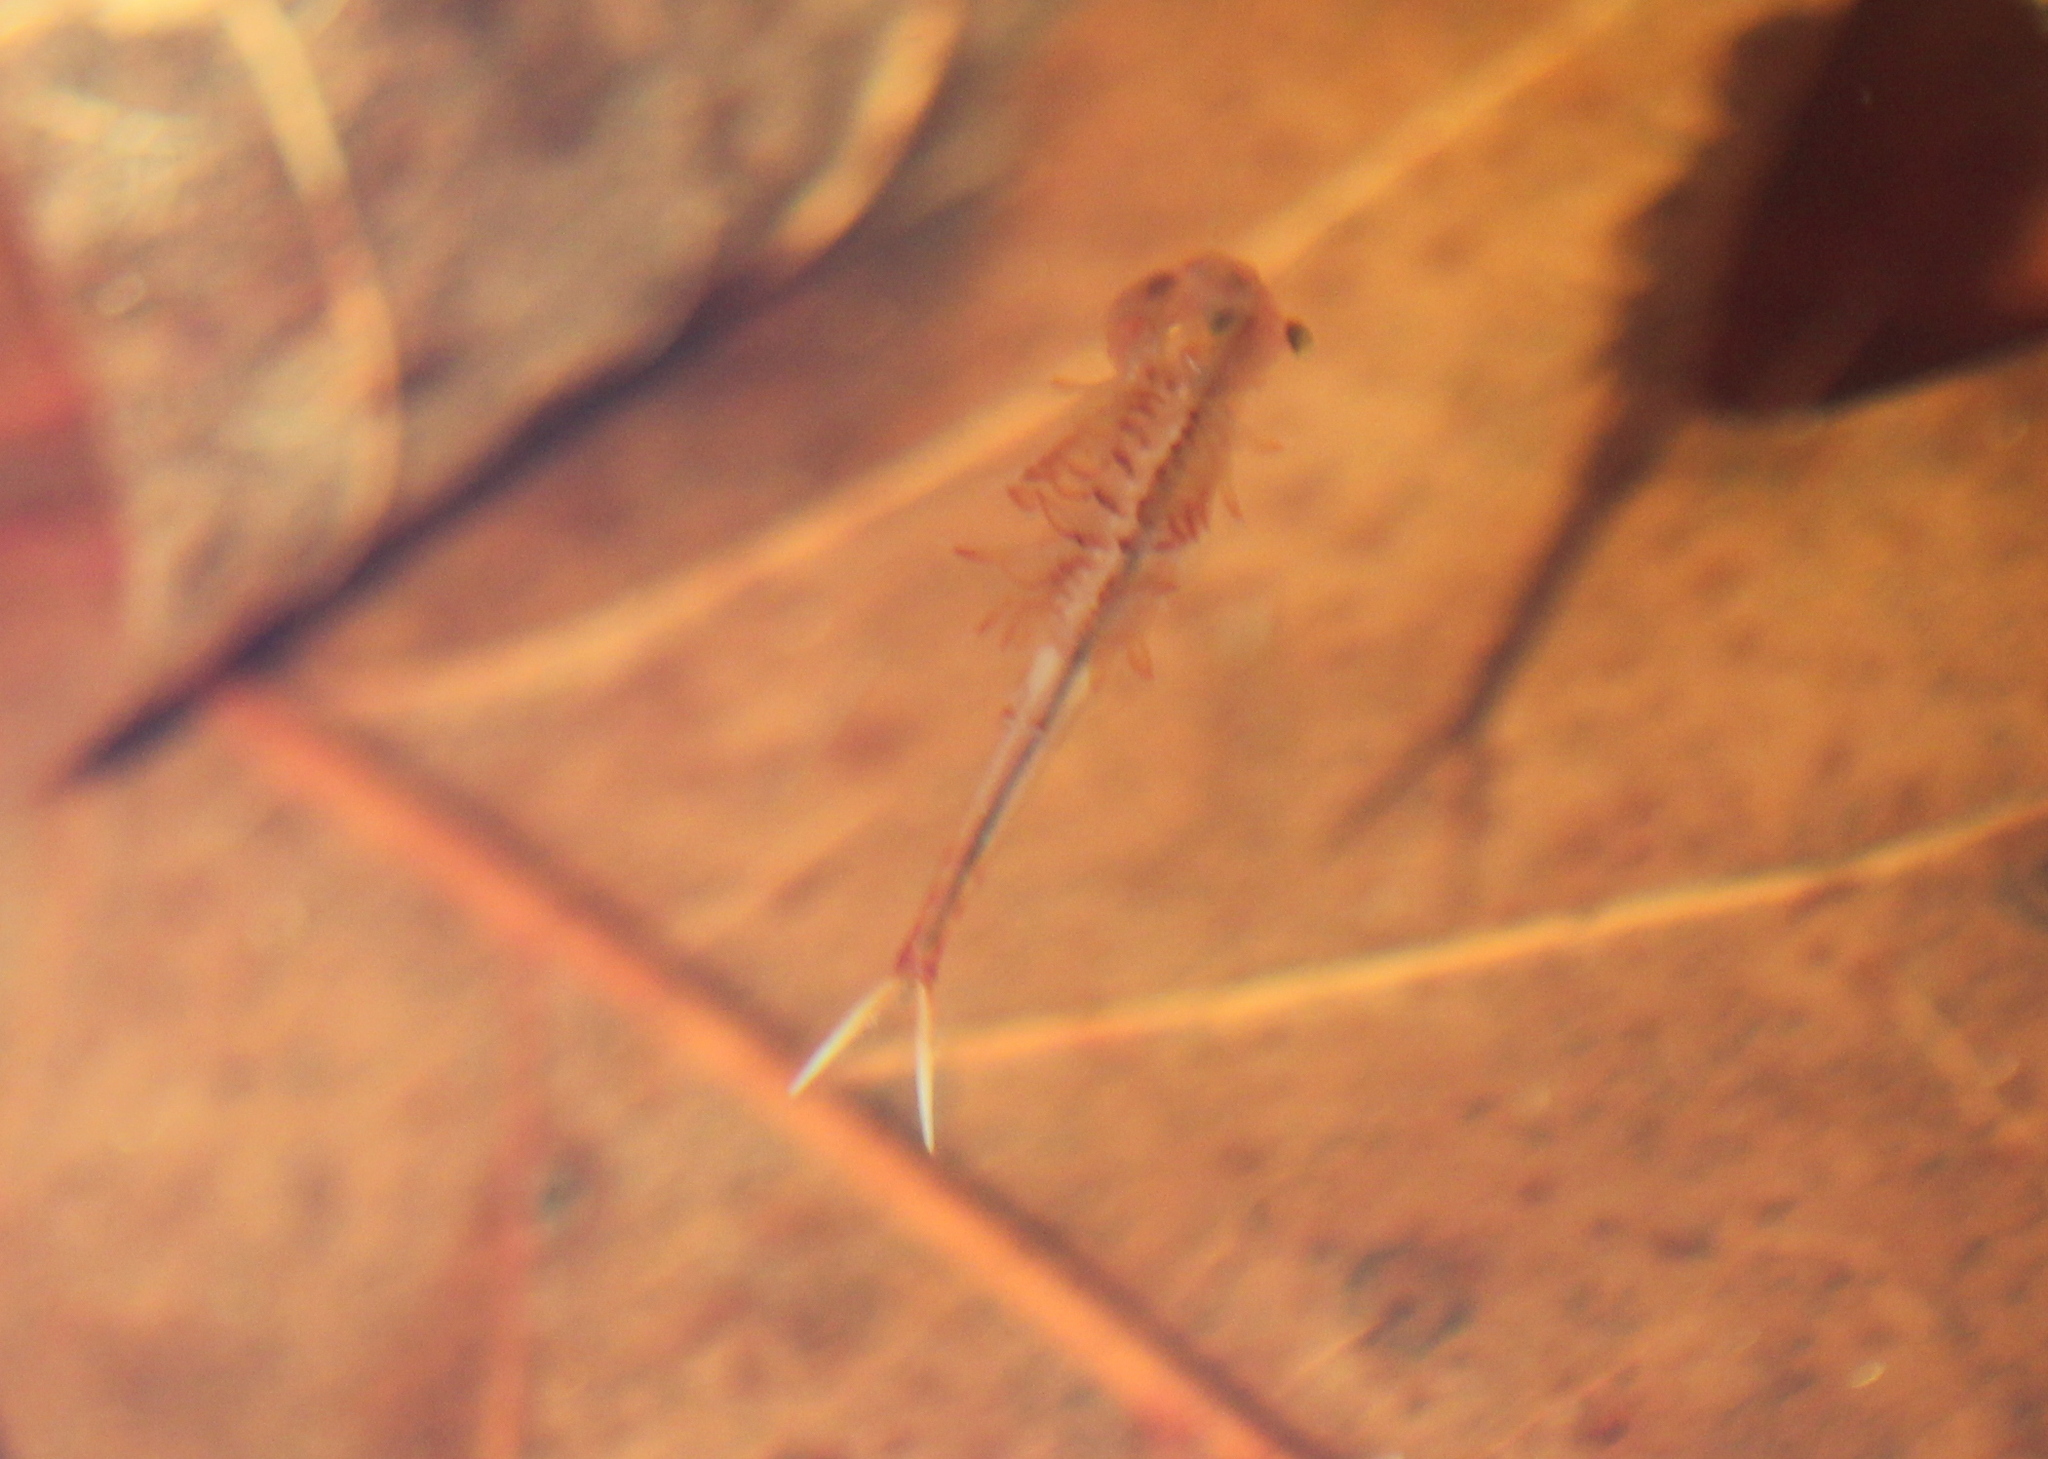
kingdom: Animalia
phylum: Arthropoda
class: Branchiopoda
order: Anostraca
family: Chirocephalidae
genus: Eubranchipus
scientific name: Eubranchipus vernalis
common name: Eastern fairy shrimp
